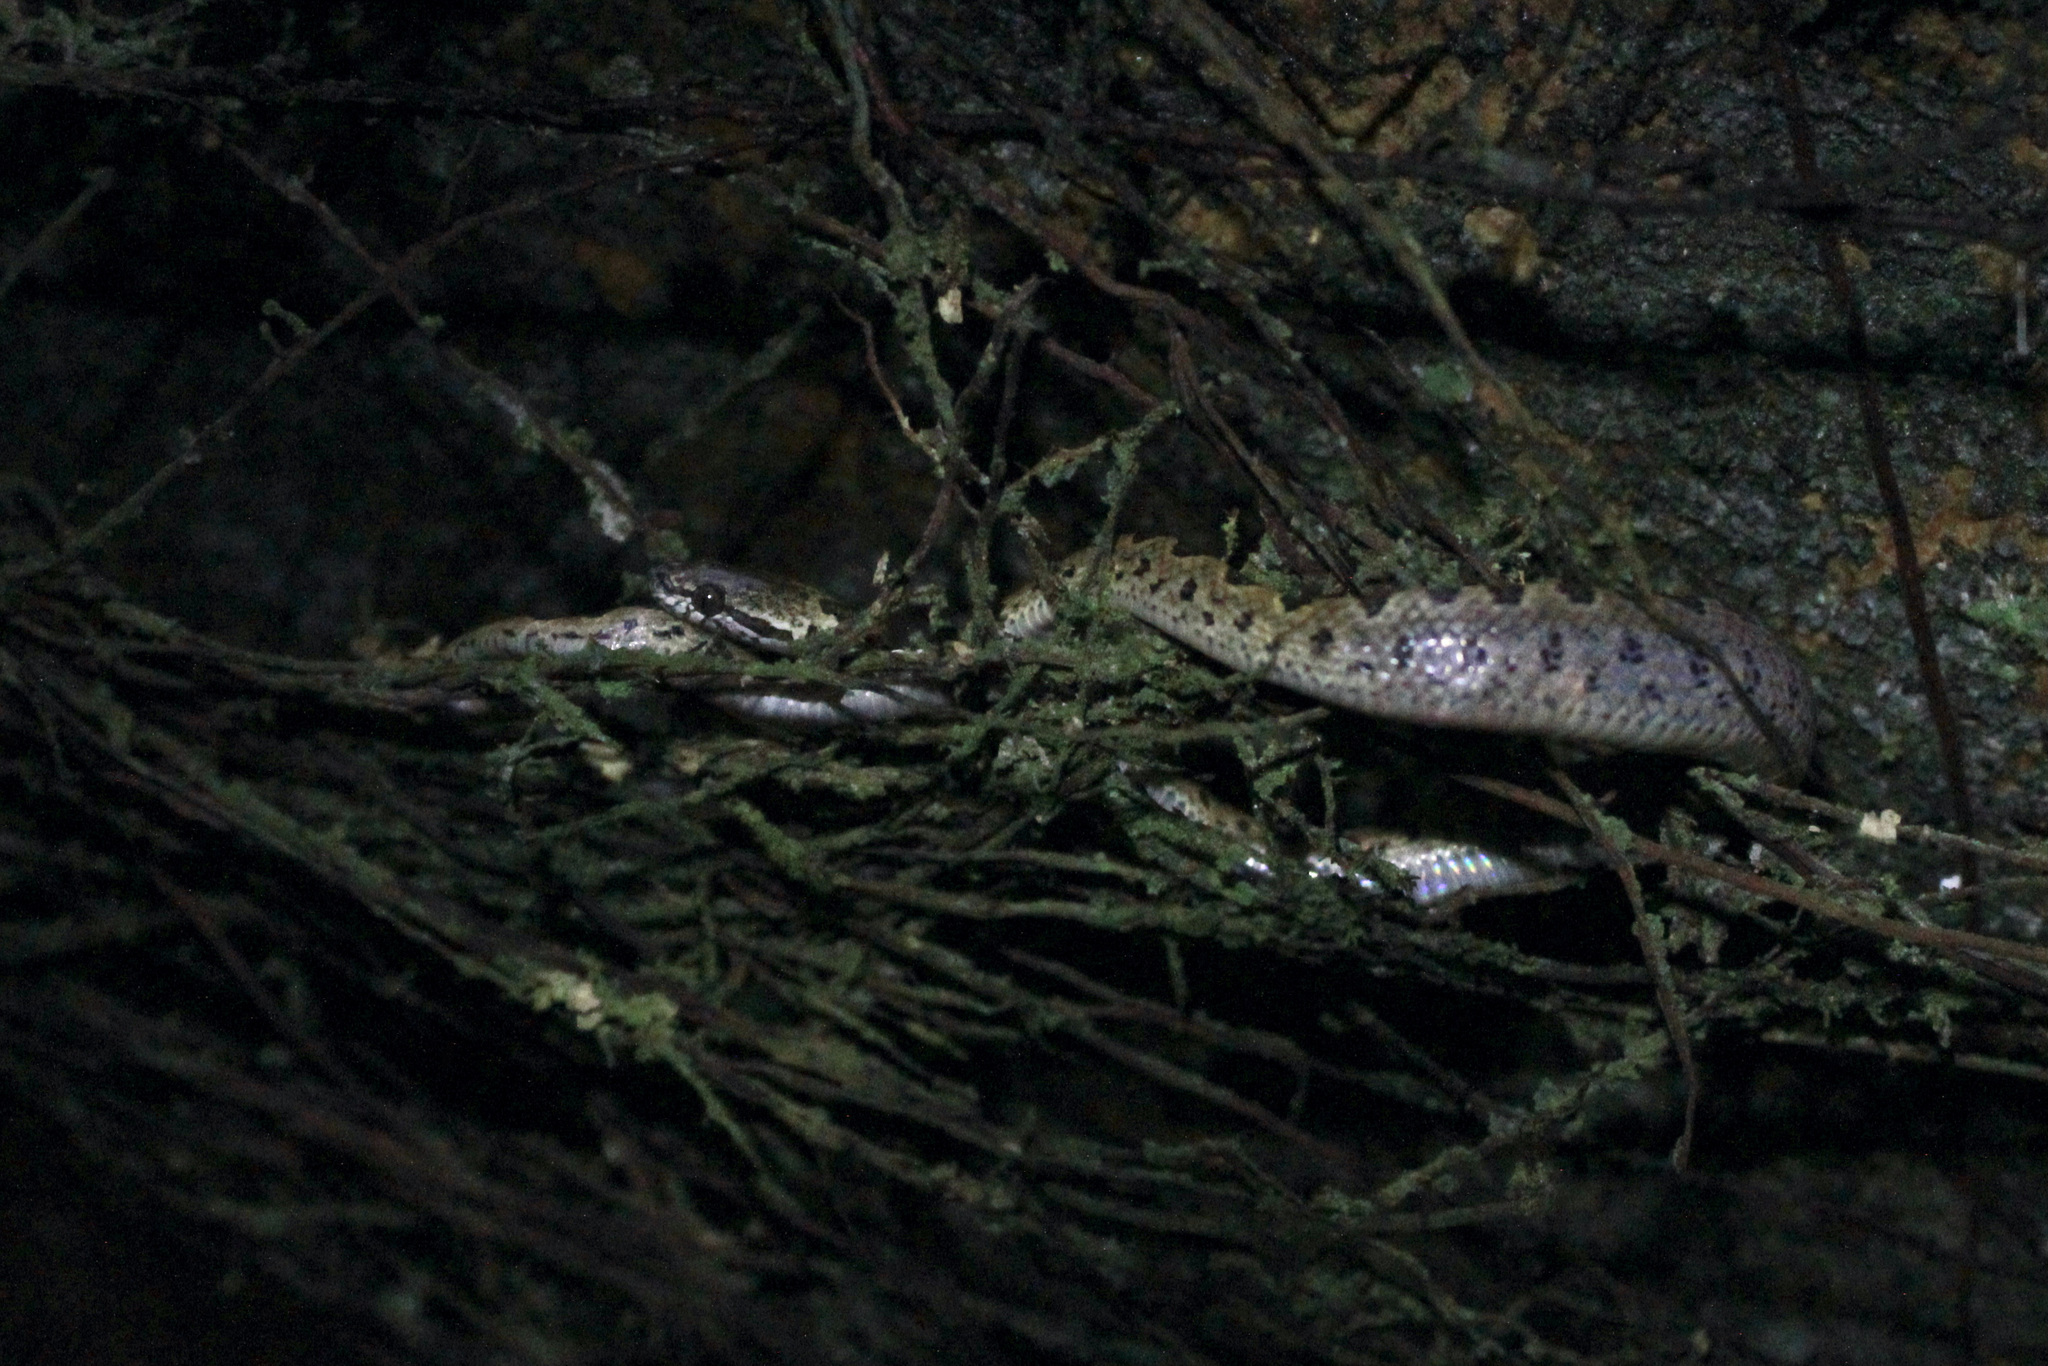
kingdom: Animalia
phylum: Chordata
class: Squamata
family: Colubridae
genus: Leptodeira
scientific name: Leptodeira ashmeadii
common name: Banded cat-eyed snake
